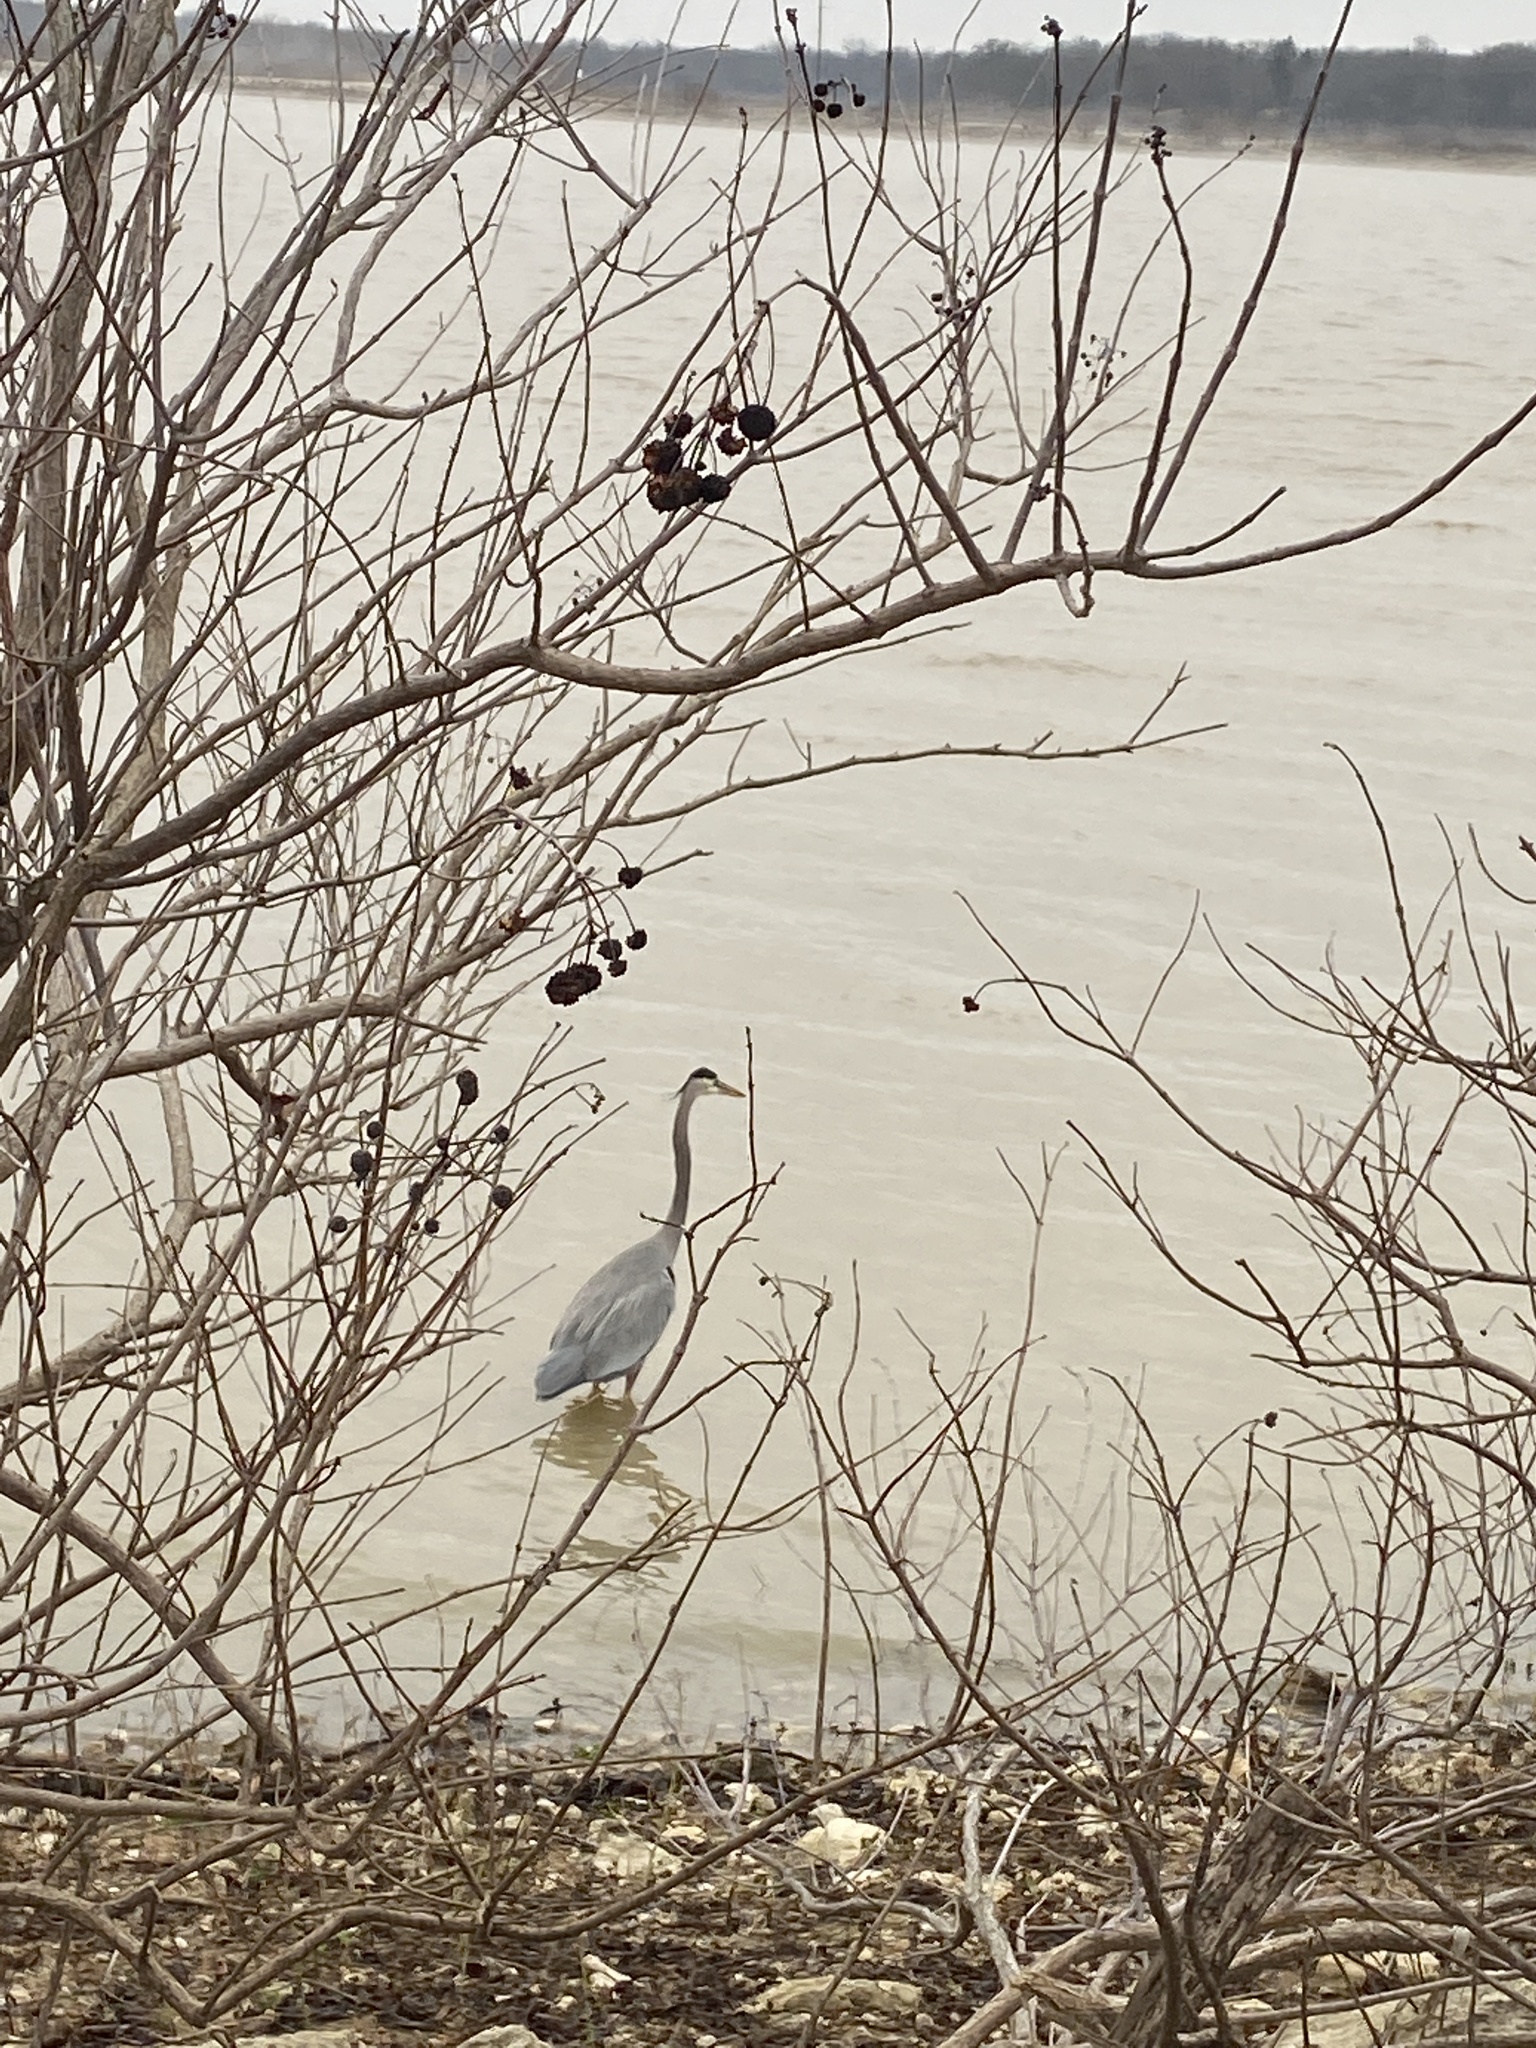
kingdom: Animalia
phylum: Chordata
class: Aves
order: Pelecaniformes
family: Ardeidae
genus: Ardea
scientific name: Ardea herodias
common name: Great blue heron
